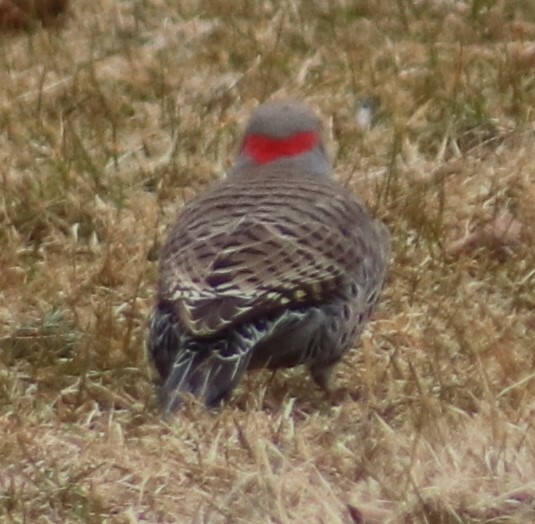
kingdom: Animalia
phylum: Chordata
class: Aves
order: Piciformes
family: Picidae
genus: Colaptes
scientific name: Colaptes auratus
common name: Northern flicker
